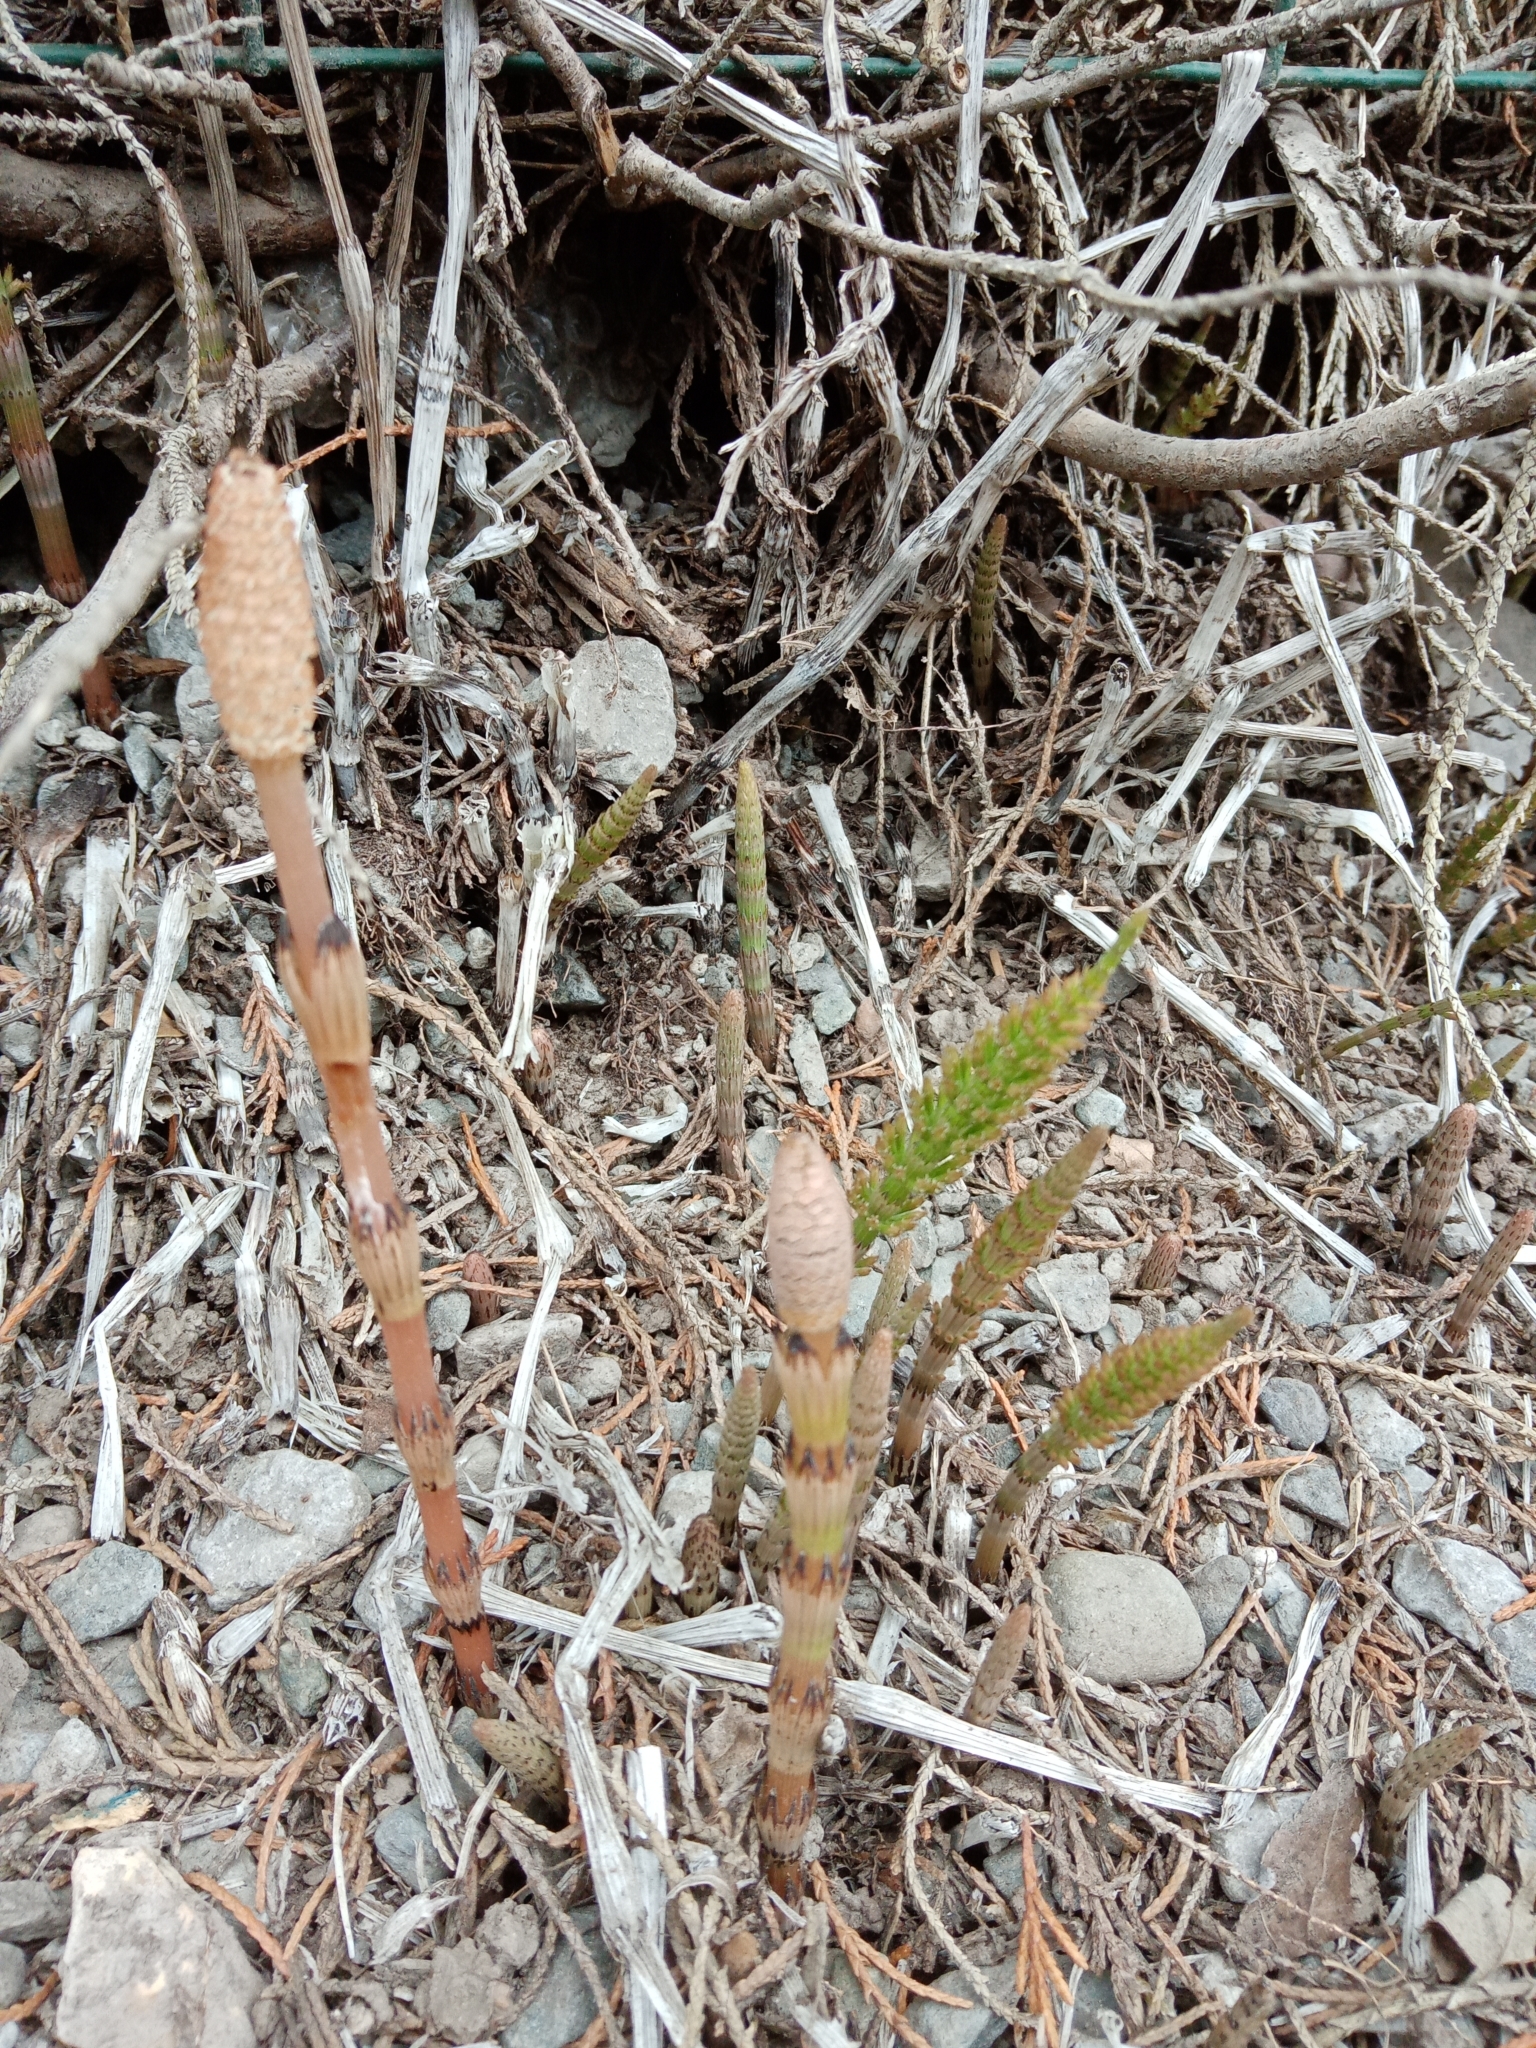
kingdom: Plantae
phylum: Tracheophyta
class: Polypodiopsida
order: Equisetales
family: Equisetaceae
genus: Equisetum
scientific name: Equisetum arvense
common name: Field horsetail
